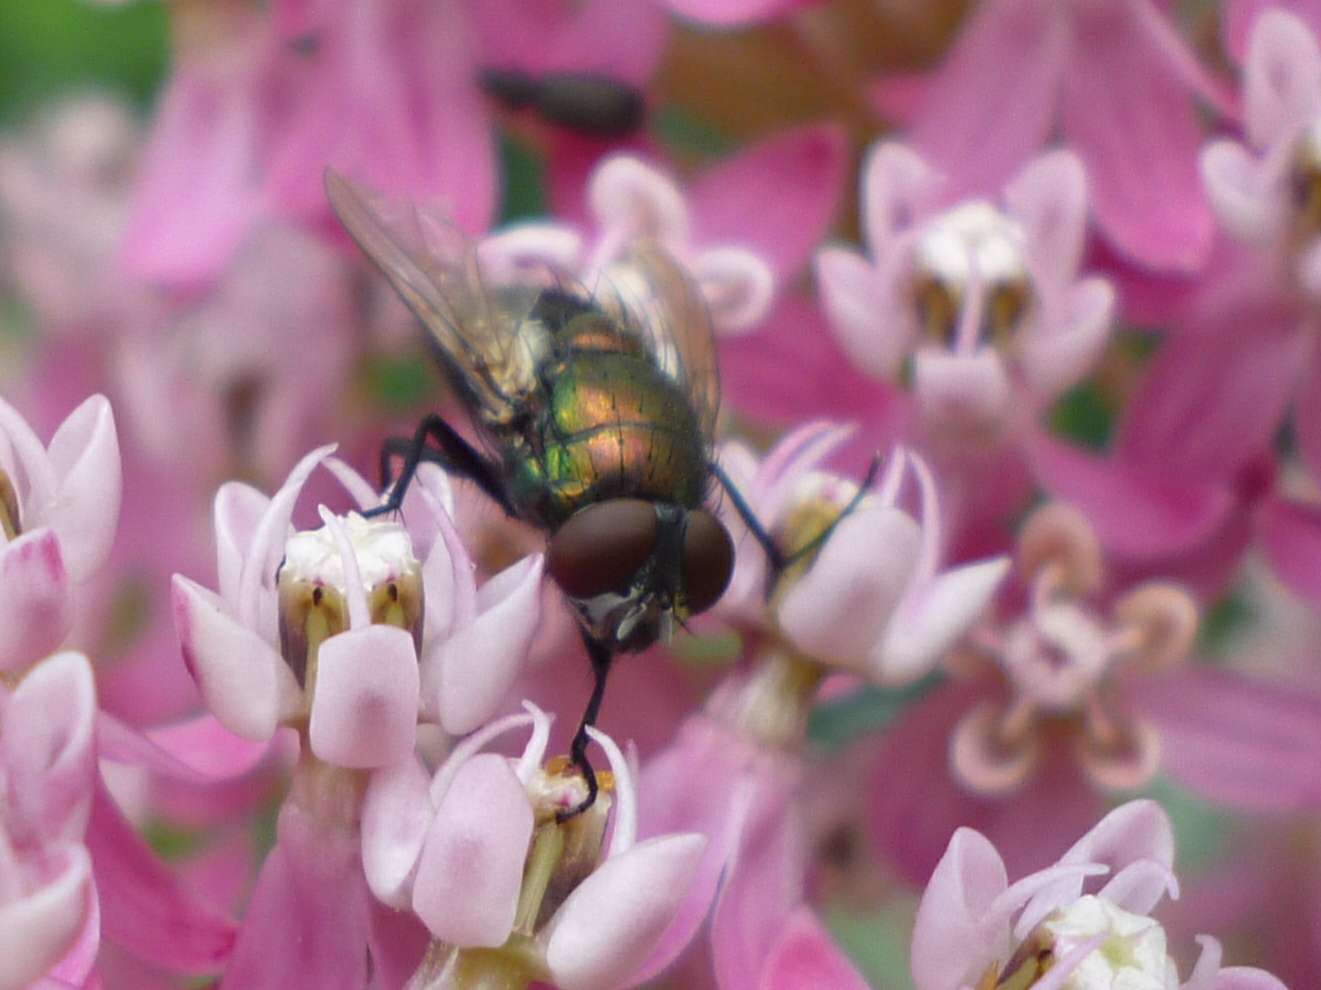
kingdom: Animalia
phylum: Arthropoda
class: Insecta
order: Diptera
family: Calliphoridae
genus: Lucilia
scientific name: Lucilia sericata
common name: Blow fly
